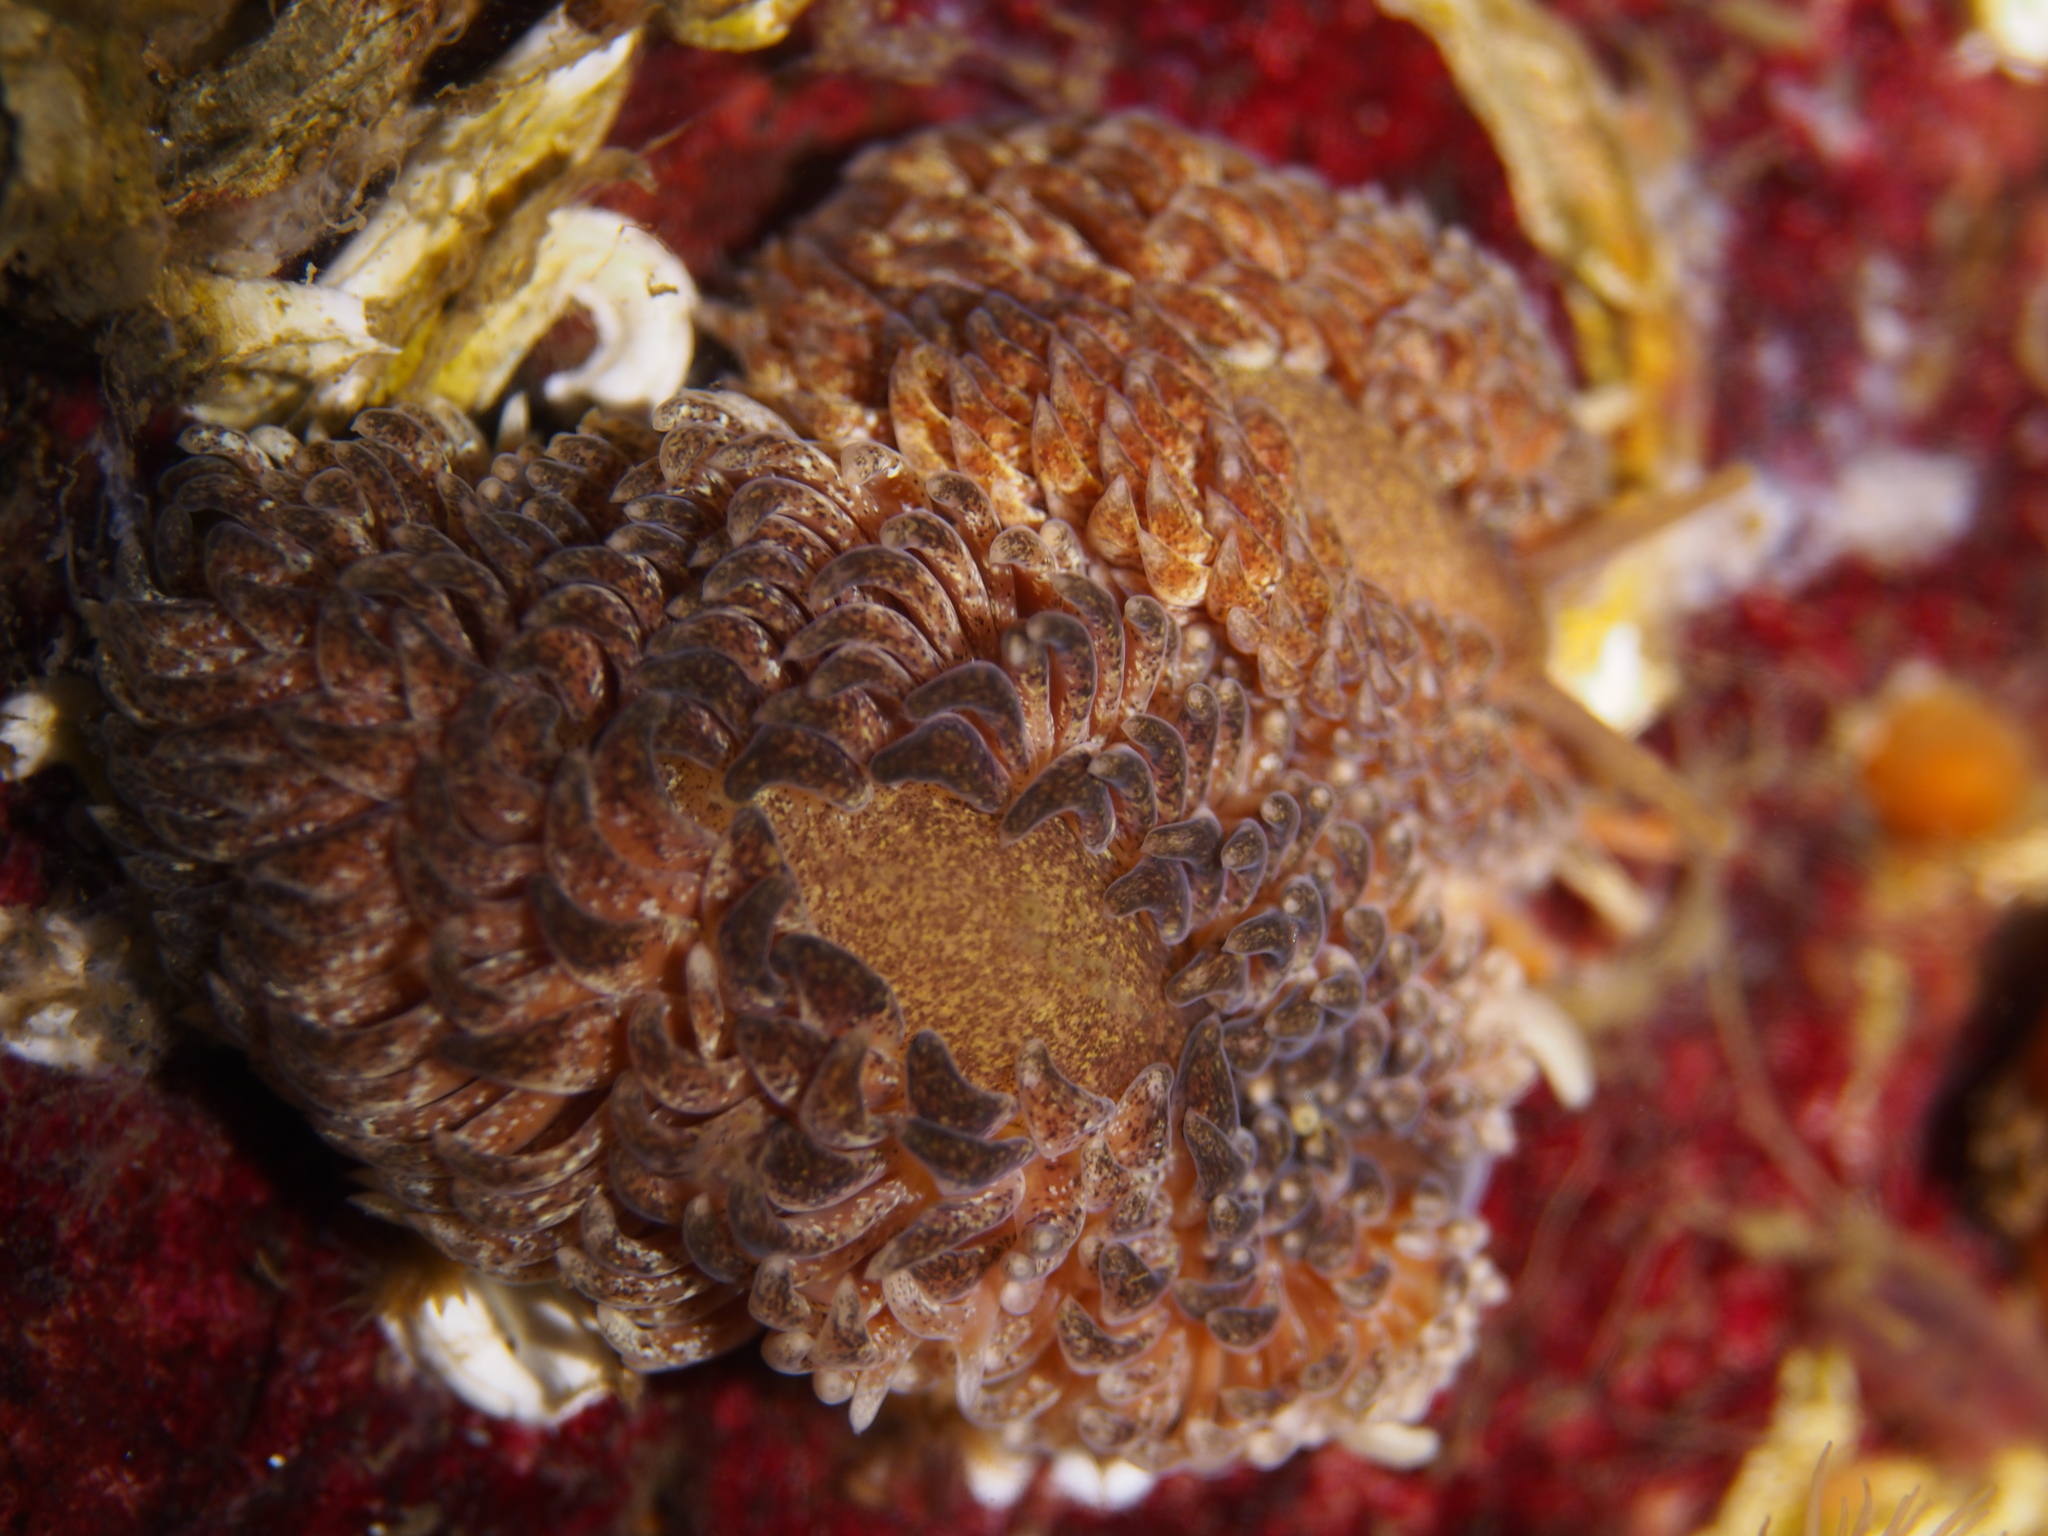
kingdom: Animalia
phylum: Mollusca
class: Gastropoda
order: Nudibranchia
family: Aeolidiidae
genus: Aeolidia
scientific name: Aeolidia papillosa
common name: Common grey sea slug
